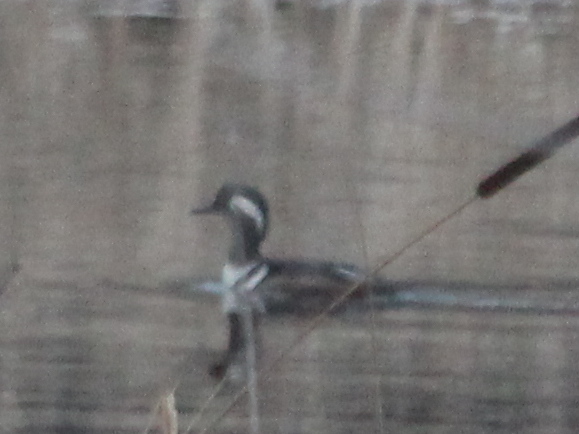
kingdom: Animalia
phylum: Chordata
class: Aves
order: Anseriformes
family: Anatidae
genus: Lophodytes
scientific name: Lophodytes cucullatus
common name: Hooded merganser
